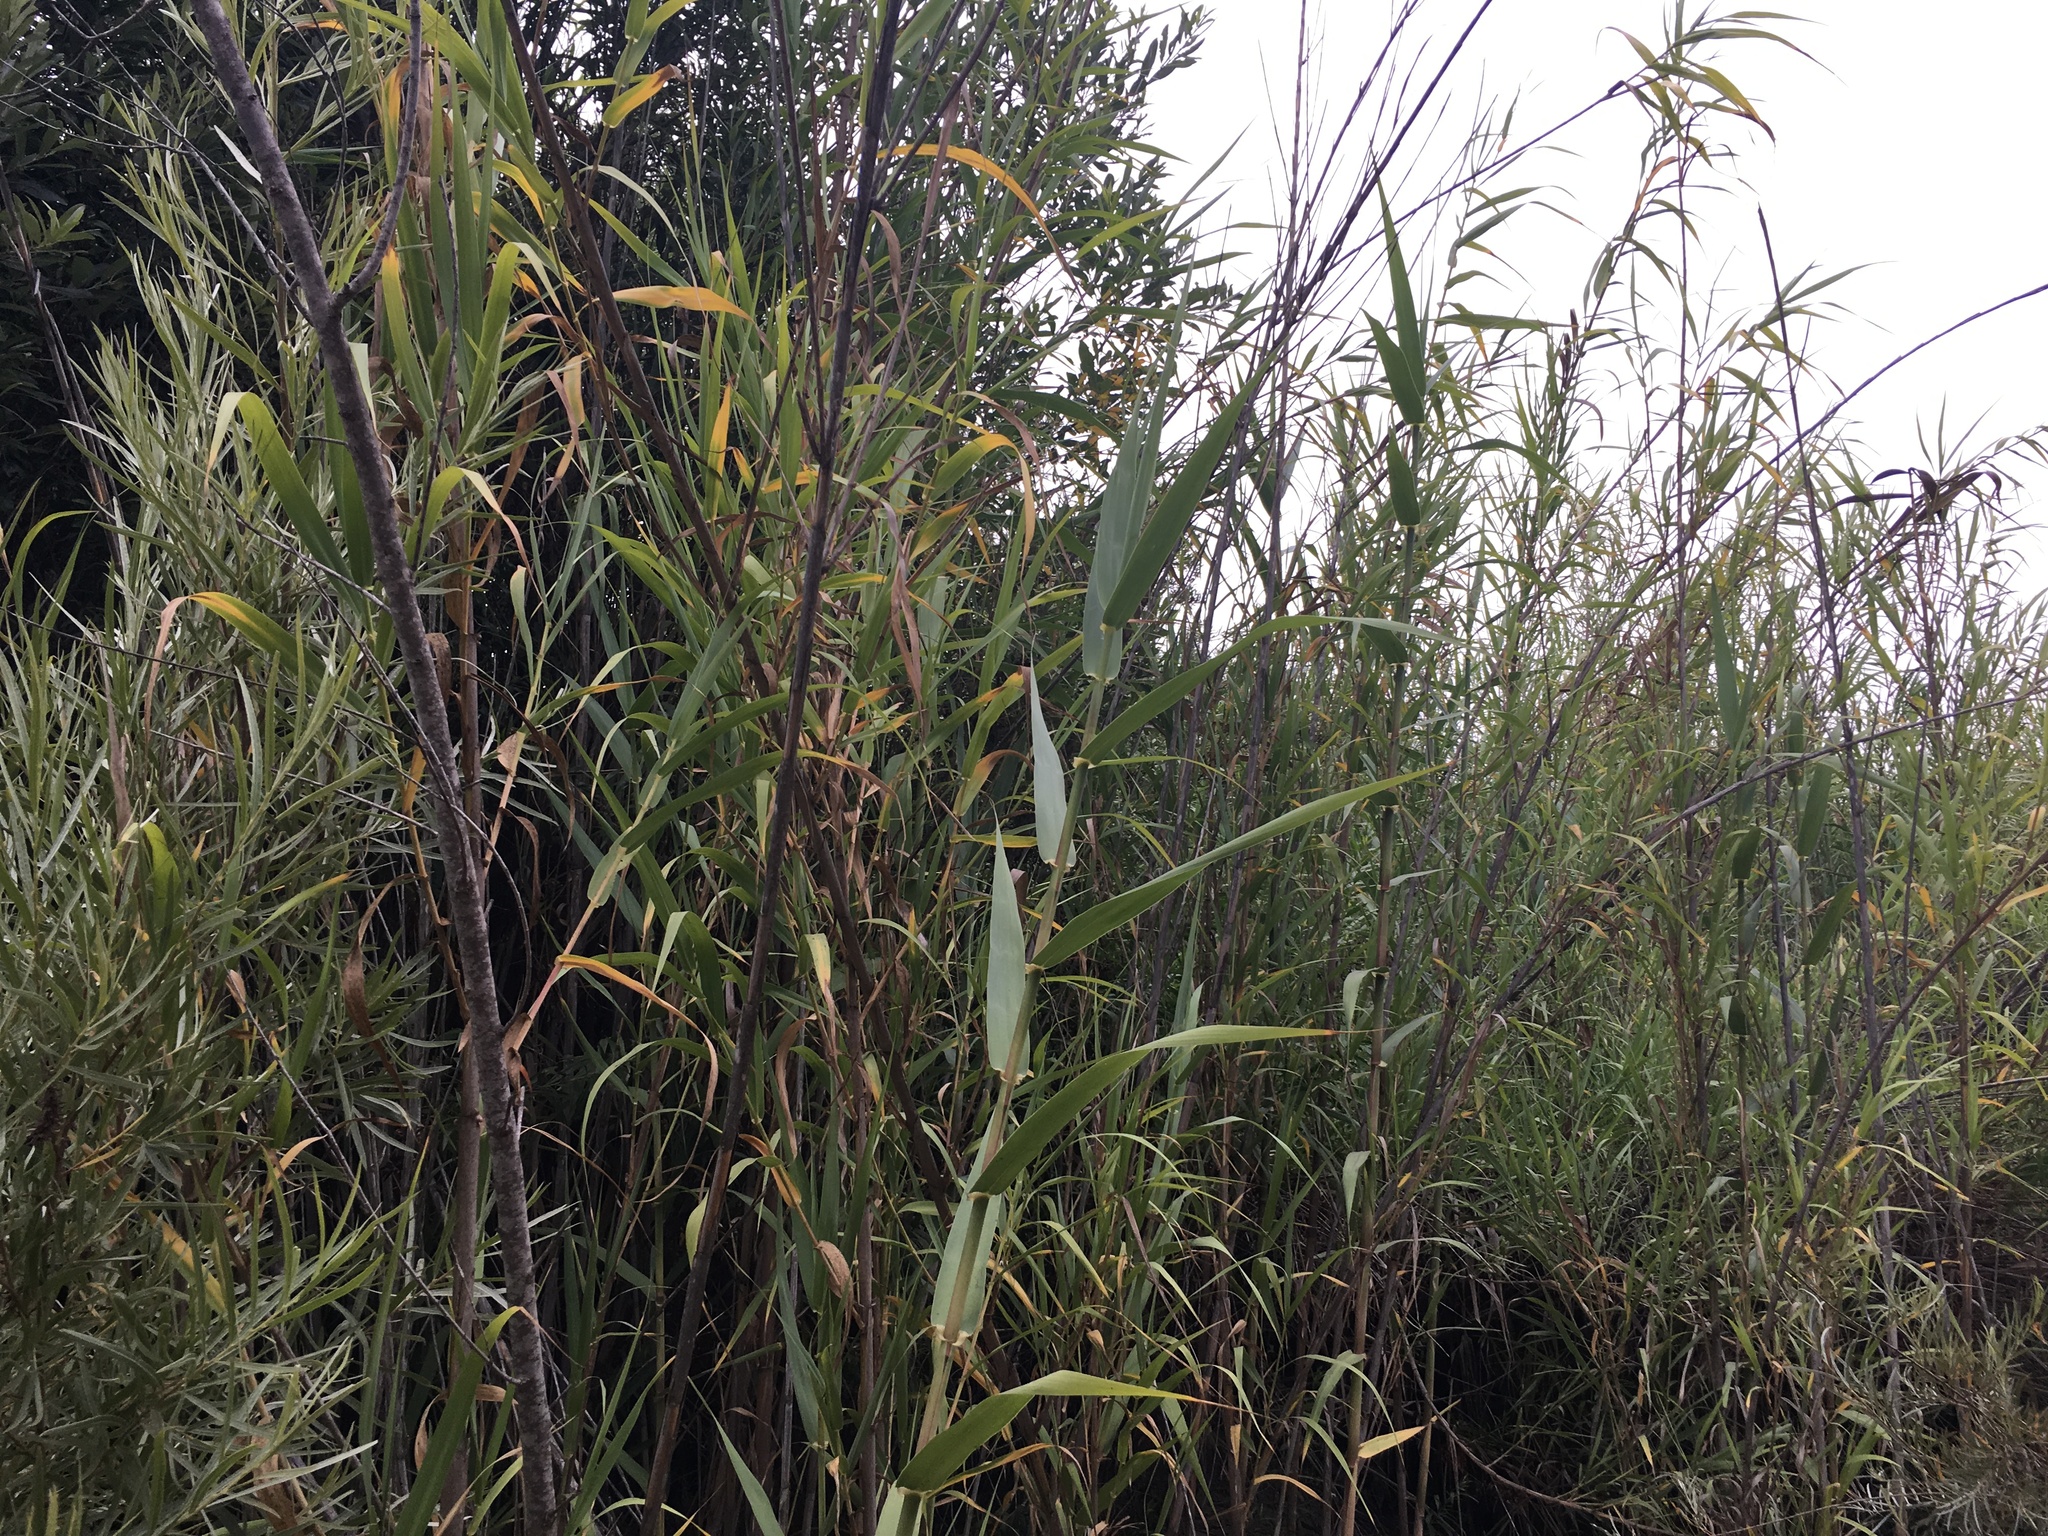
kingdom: Plantae
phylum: Tracheophyta
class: Liliopsida
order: Poales
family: Poaceae
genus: Arundo
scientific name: Arundo donax
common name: Giant reed
